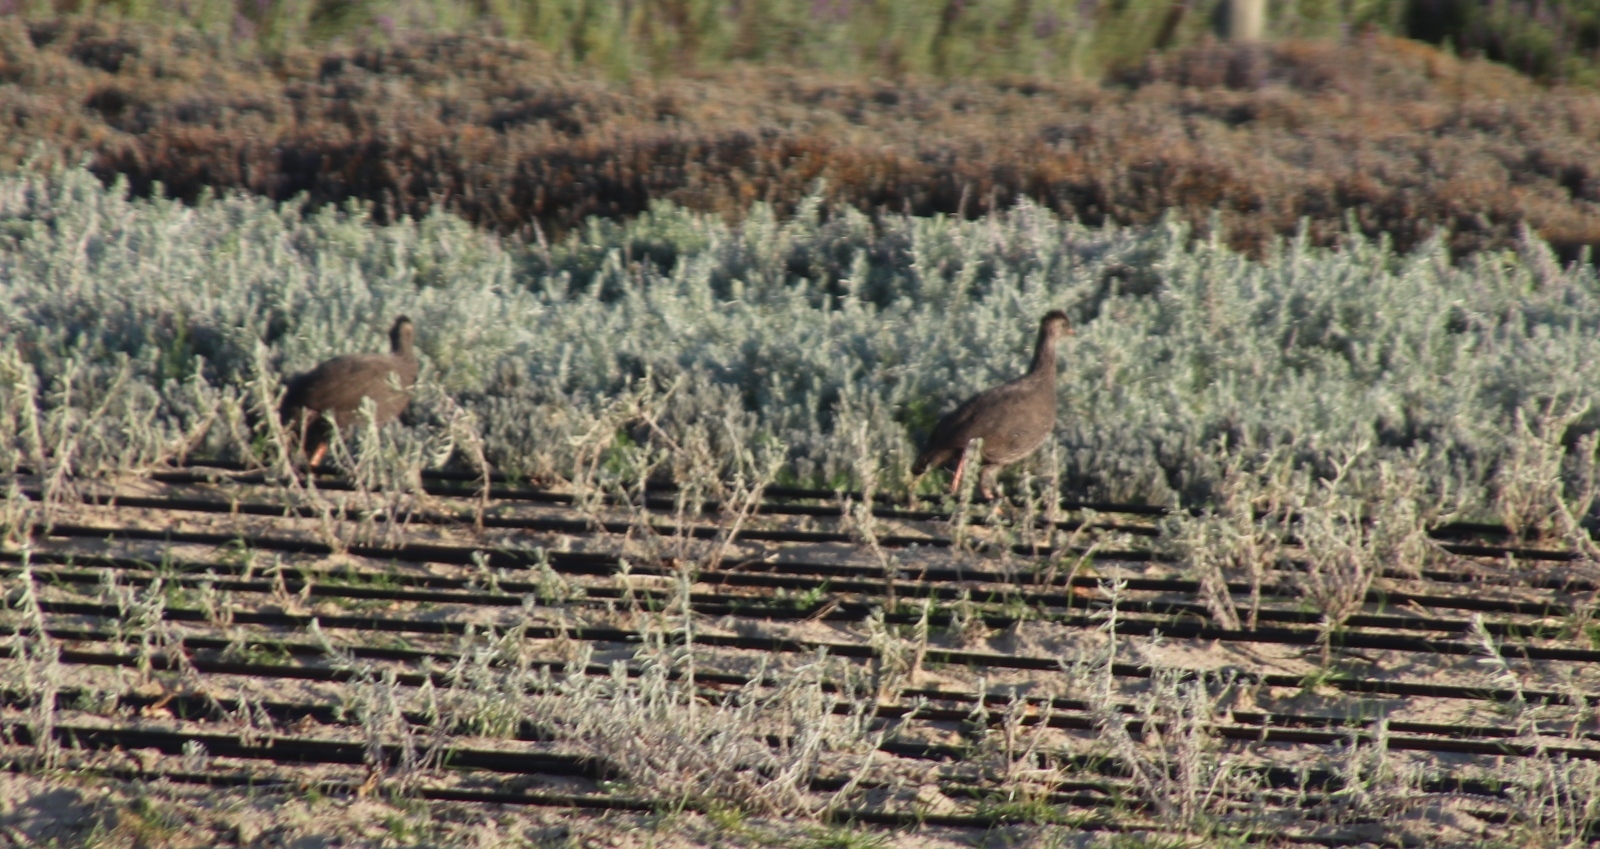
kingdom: Animalia
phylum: Chordata
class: Aves
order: Galliformes
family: Phasianidae
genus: Pternistis
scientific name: Pternistis capensis
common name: Cape spurfowl
